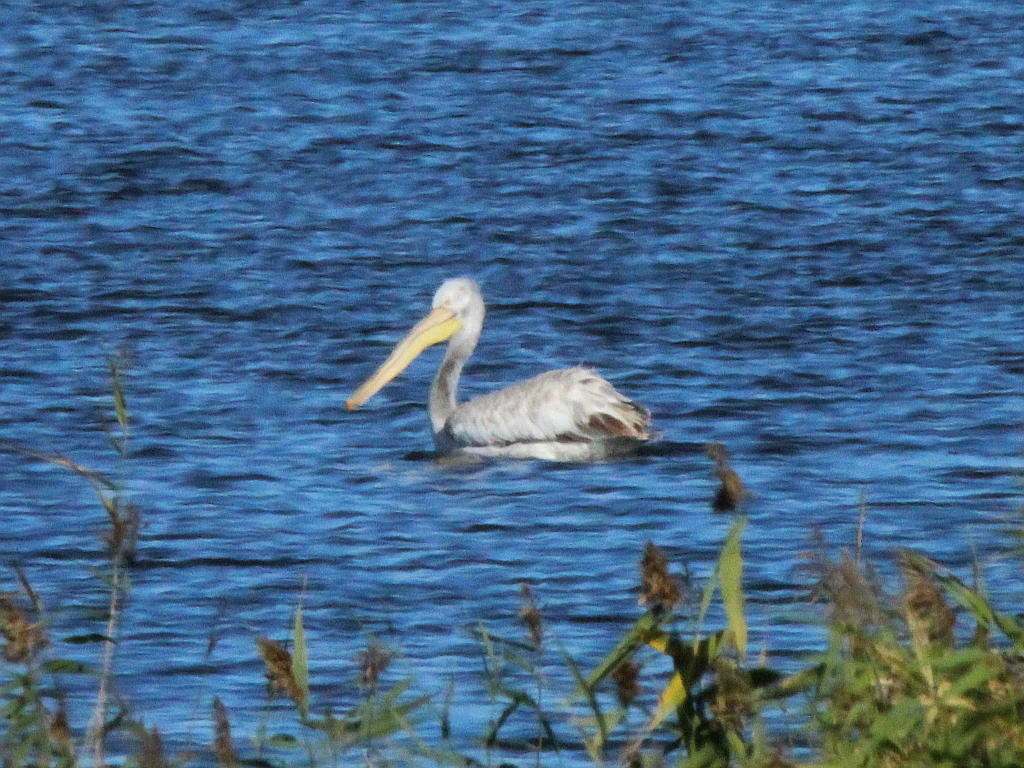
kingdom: Animalia
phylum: Chordata
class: Aves
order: Pelecaniformes
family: Pelecanidae
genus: Pelecanus
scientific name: Pelecanus crispus
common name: Dalmatian pelican
